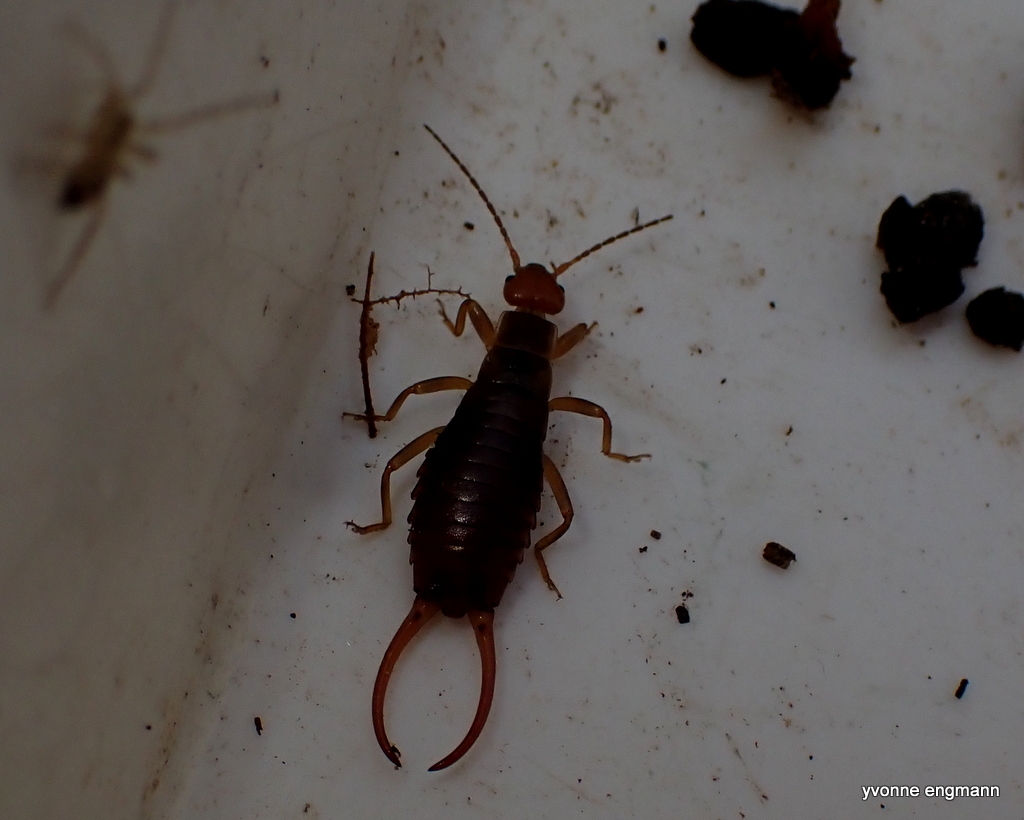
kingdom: Animalia
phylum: Arthropoda
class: Insecta
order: Dermaptera
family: Forficulidae
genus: Chelidurella
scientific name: Chelidurella acanthopygia
